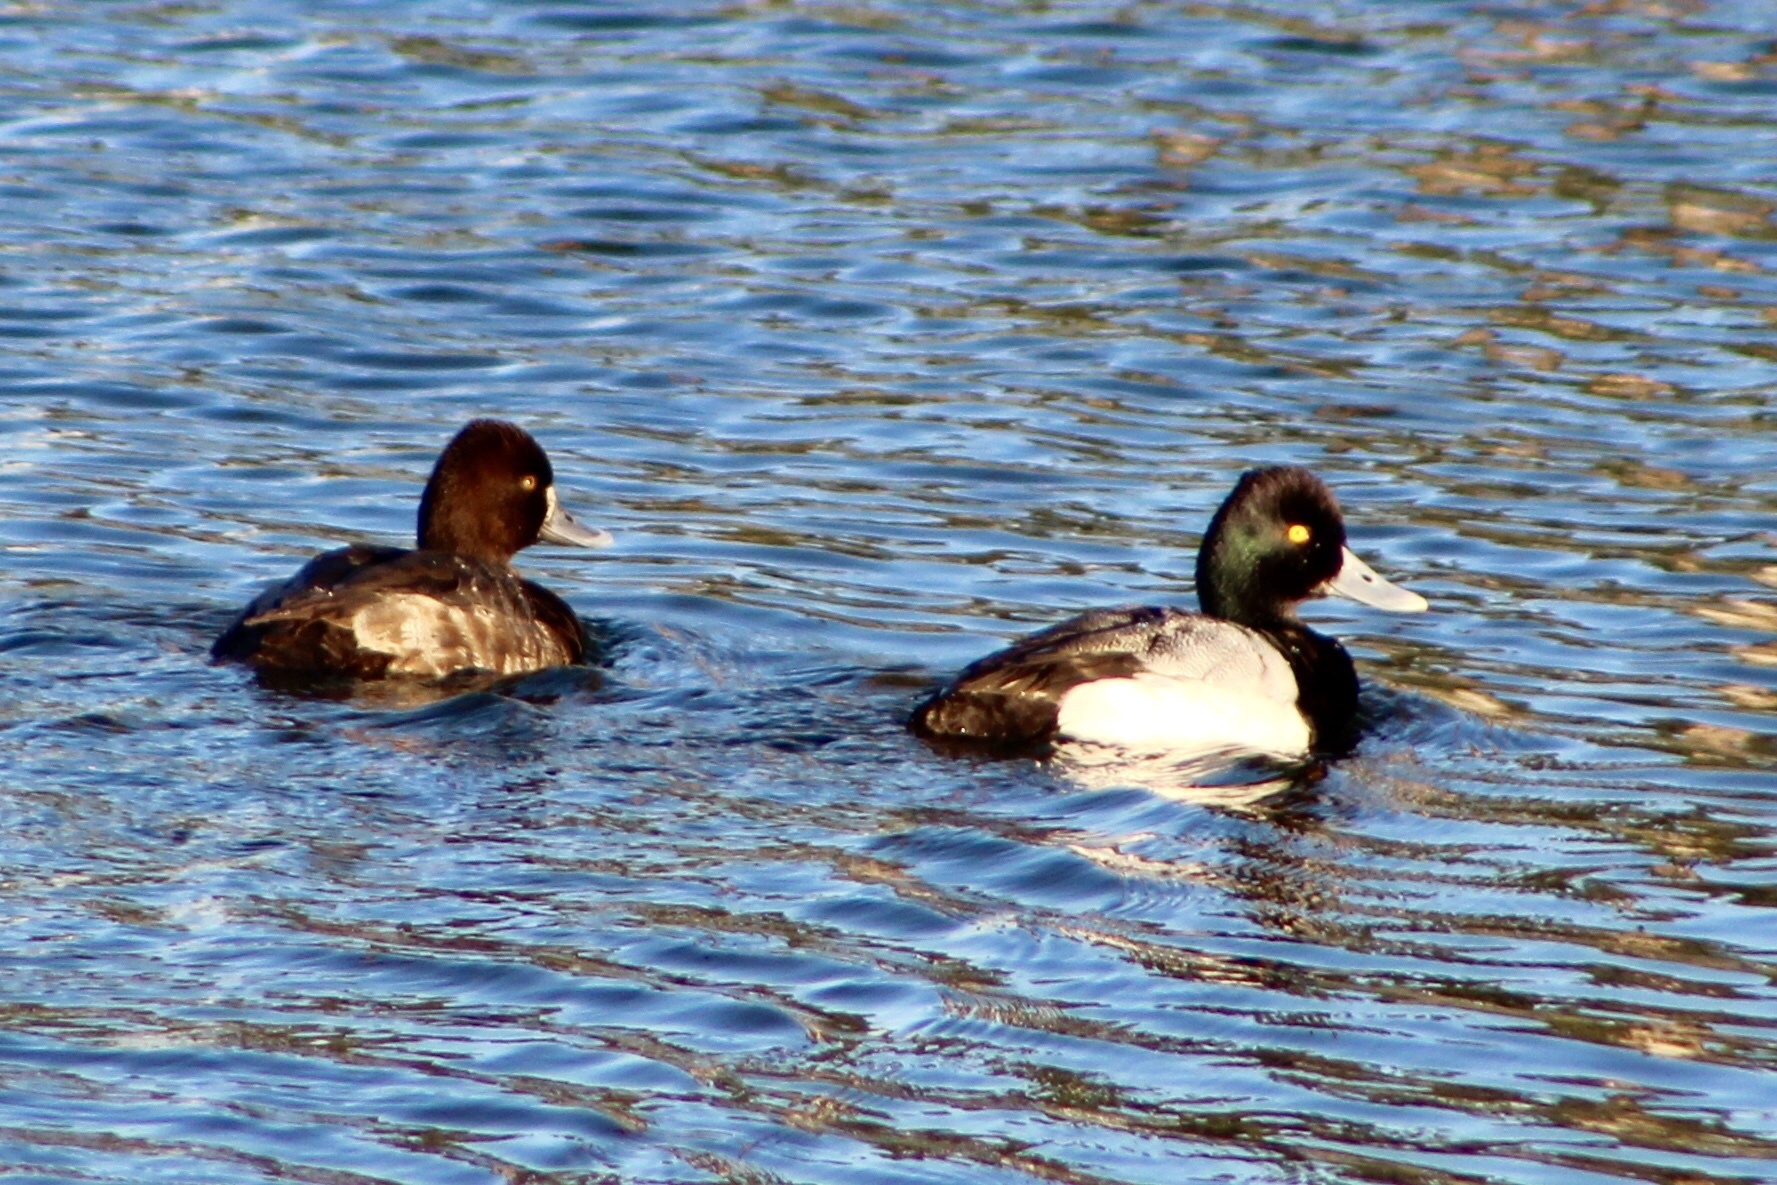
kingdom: Animalia
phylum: Chordata
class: Aves
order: Anseriformes
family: Anatidae
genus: Aythya
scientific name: Aythya affinis
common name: Lesser scaup
